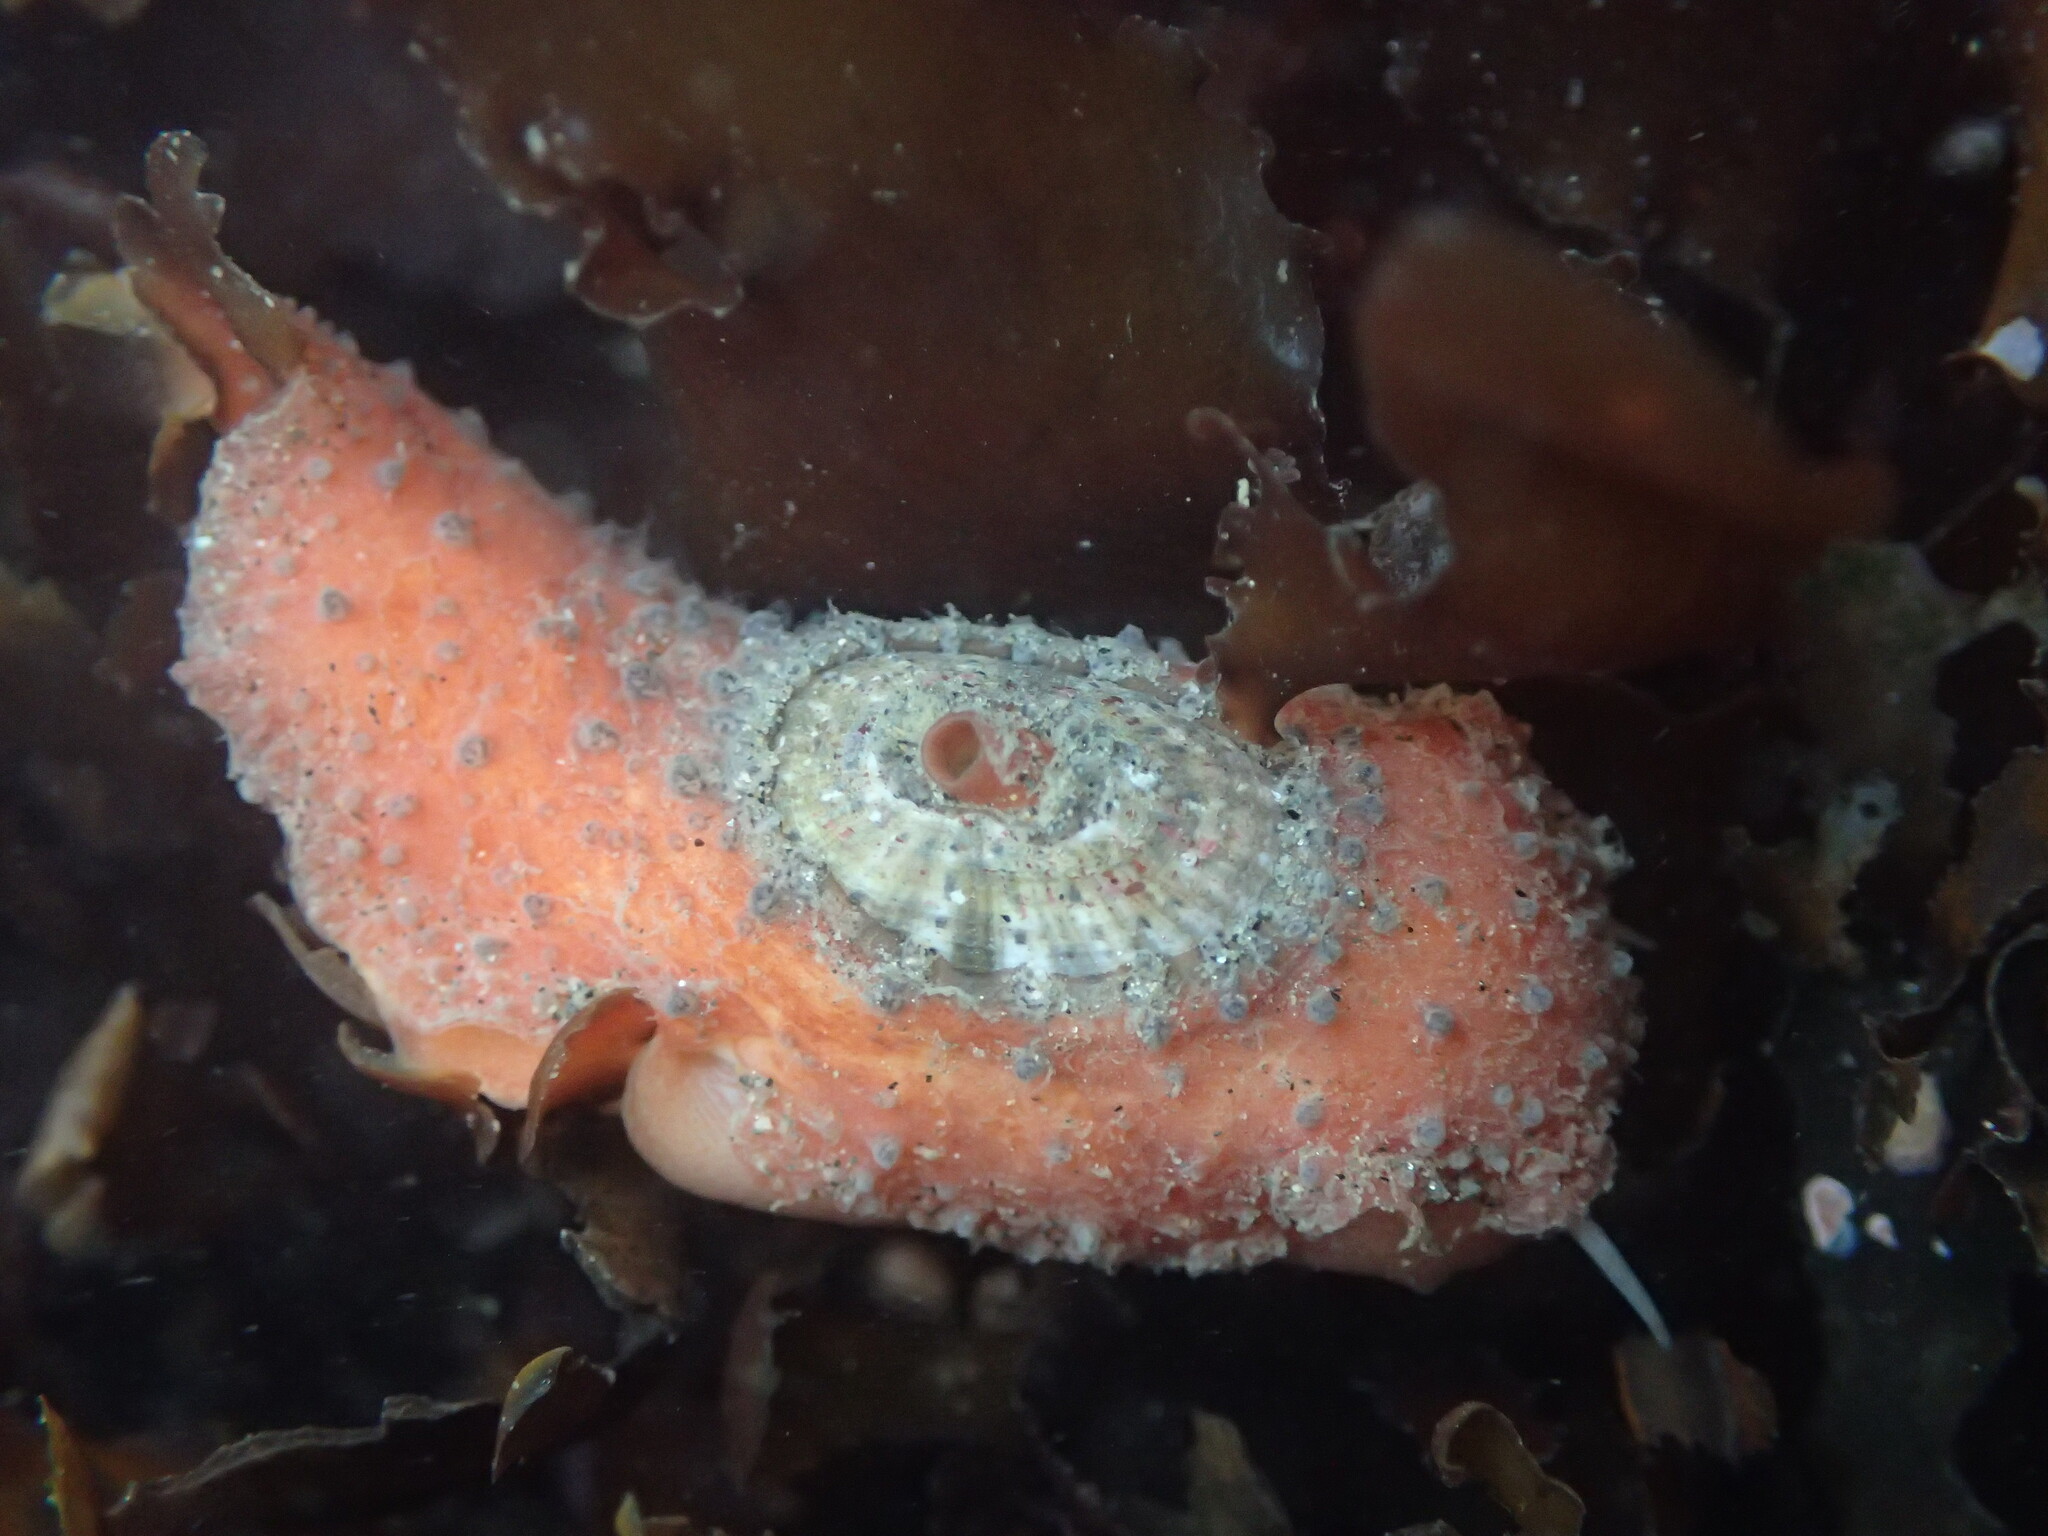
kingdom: Animalia
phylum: Mollusca
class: Gastropoda
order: Lepetellida
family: Fissurellidae
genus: Fissurellidea
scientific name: Fissurellidea bimaculata
